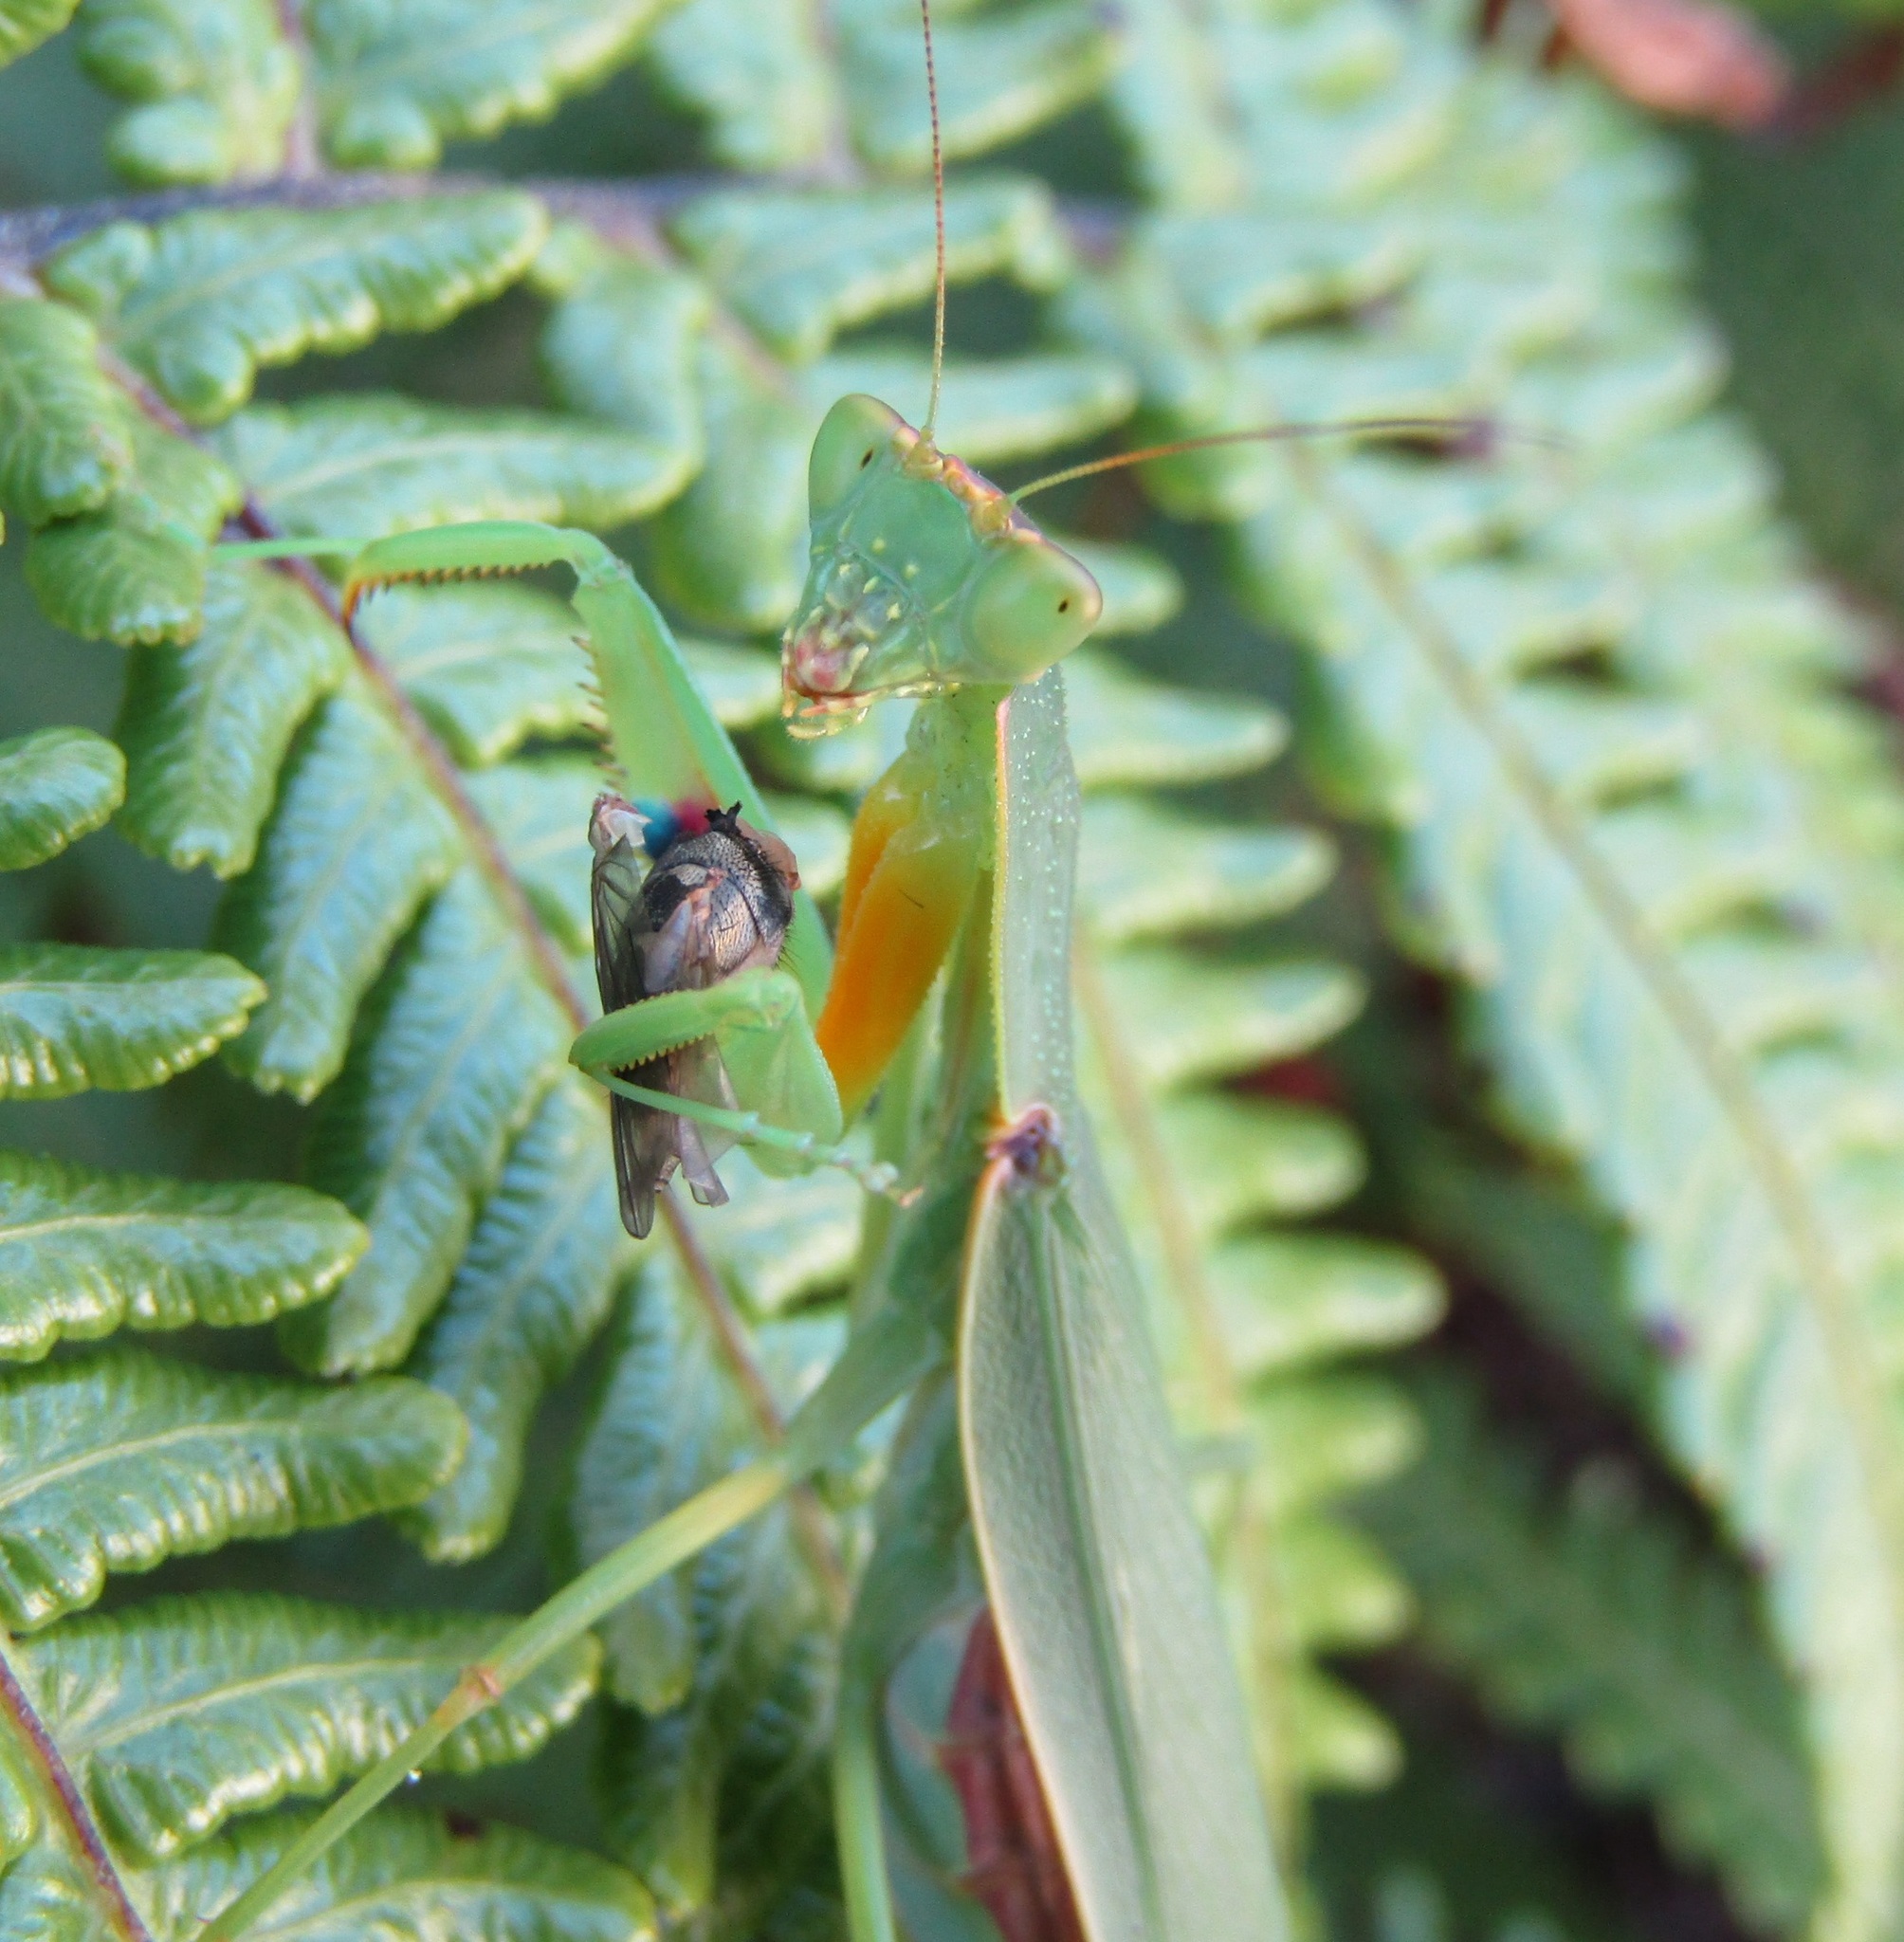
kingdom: Animalia
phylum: Arthropoda
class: Insecta
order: Mantodea
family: Mantidae
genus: Orthodera
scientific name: Orthodera novaezealandiae
